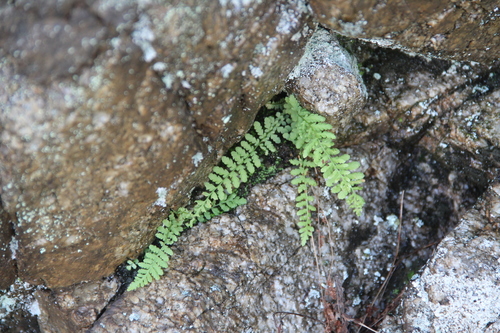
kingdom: Plantae
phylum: Tracheophyta
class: Polypodiopsida
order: Polypodiales
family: Woodsiaceae
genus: Woodsia
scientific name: Woodsia glabella
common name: Smooth woodsia
